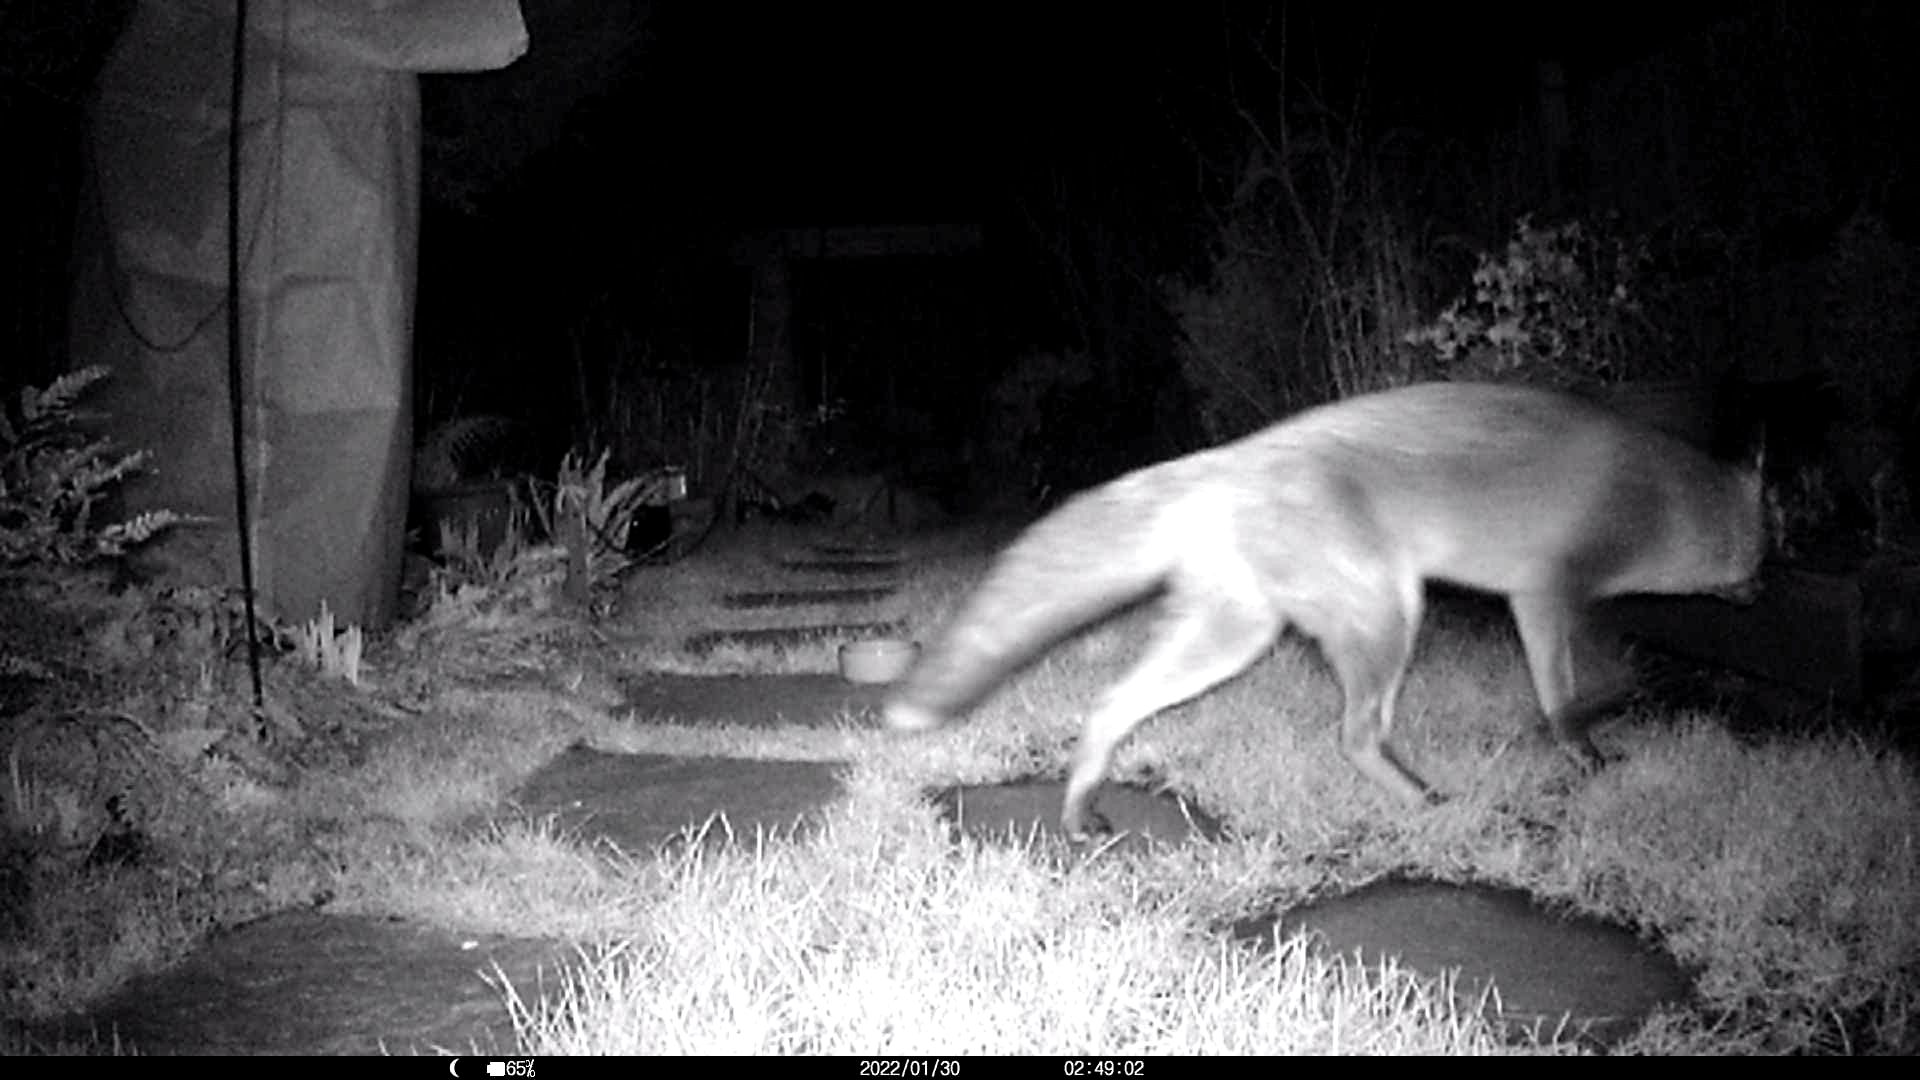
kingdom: Animalia
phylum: Chordata
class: Mammalia
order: Carnivora
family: Canidae
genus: Vulpes
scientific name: Vulpes vulpes
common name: Red fox
